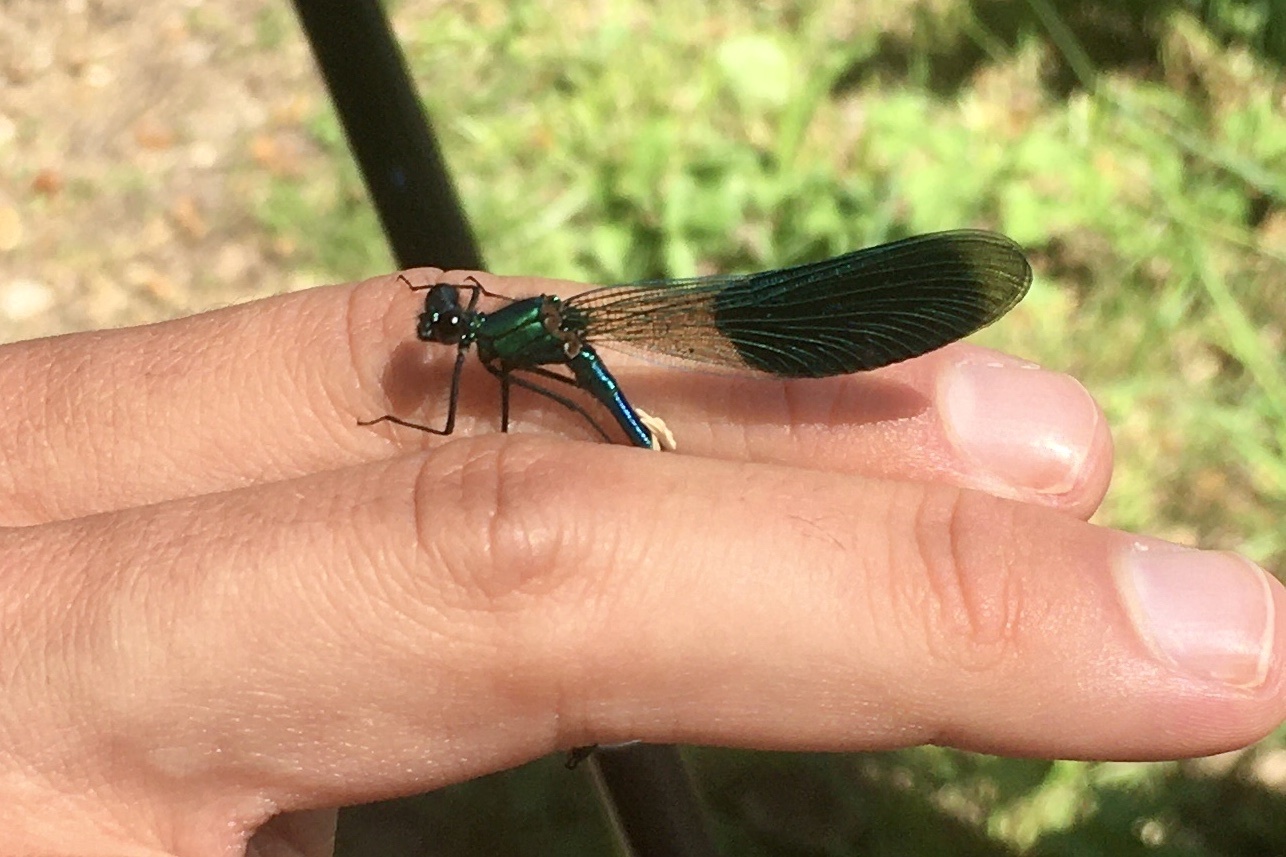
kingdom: Animalia
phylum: Arthropoda
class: Insecta
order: Odonata
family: Calopterygidae
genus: Calopteryx
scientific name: Calopteryx splendens
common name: Banded demoiselle
